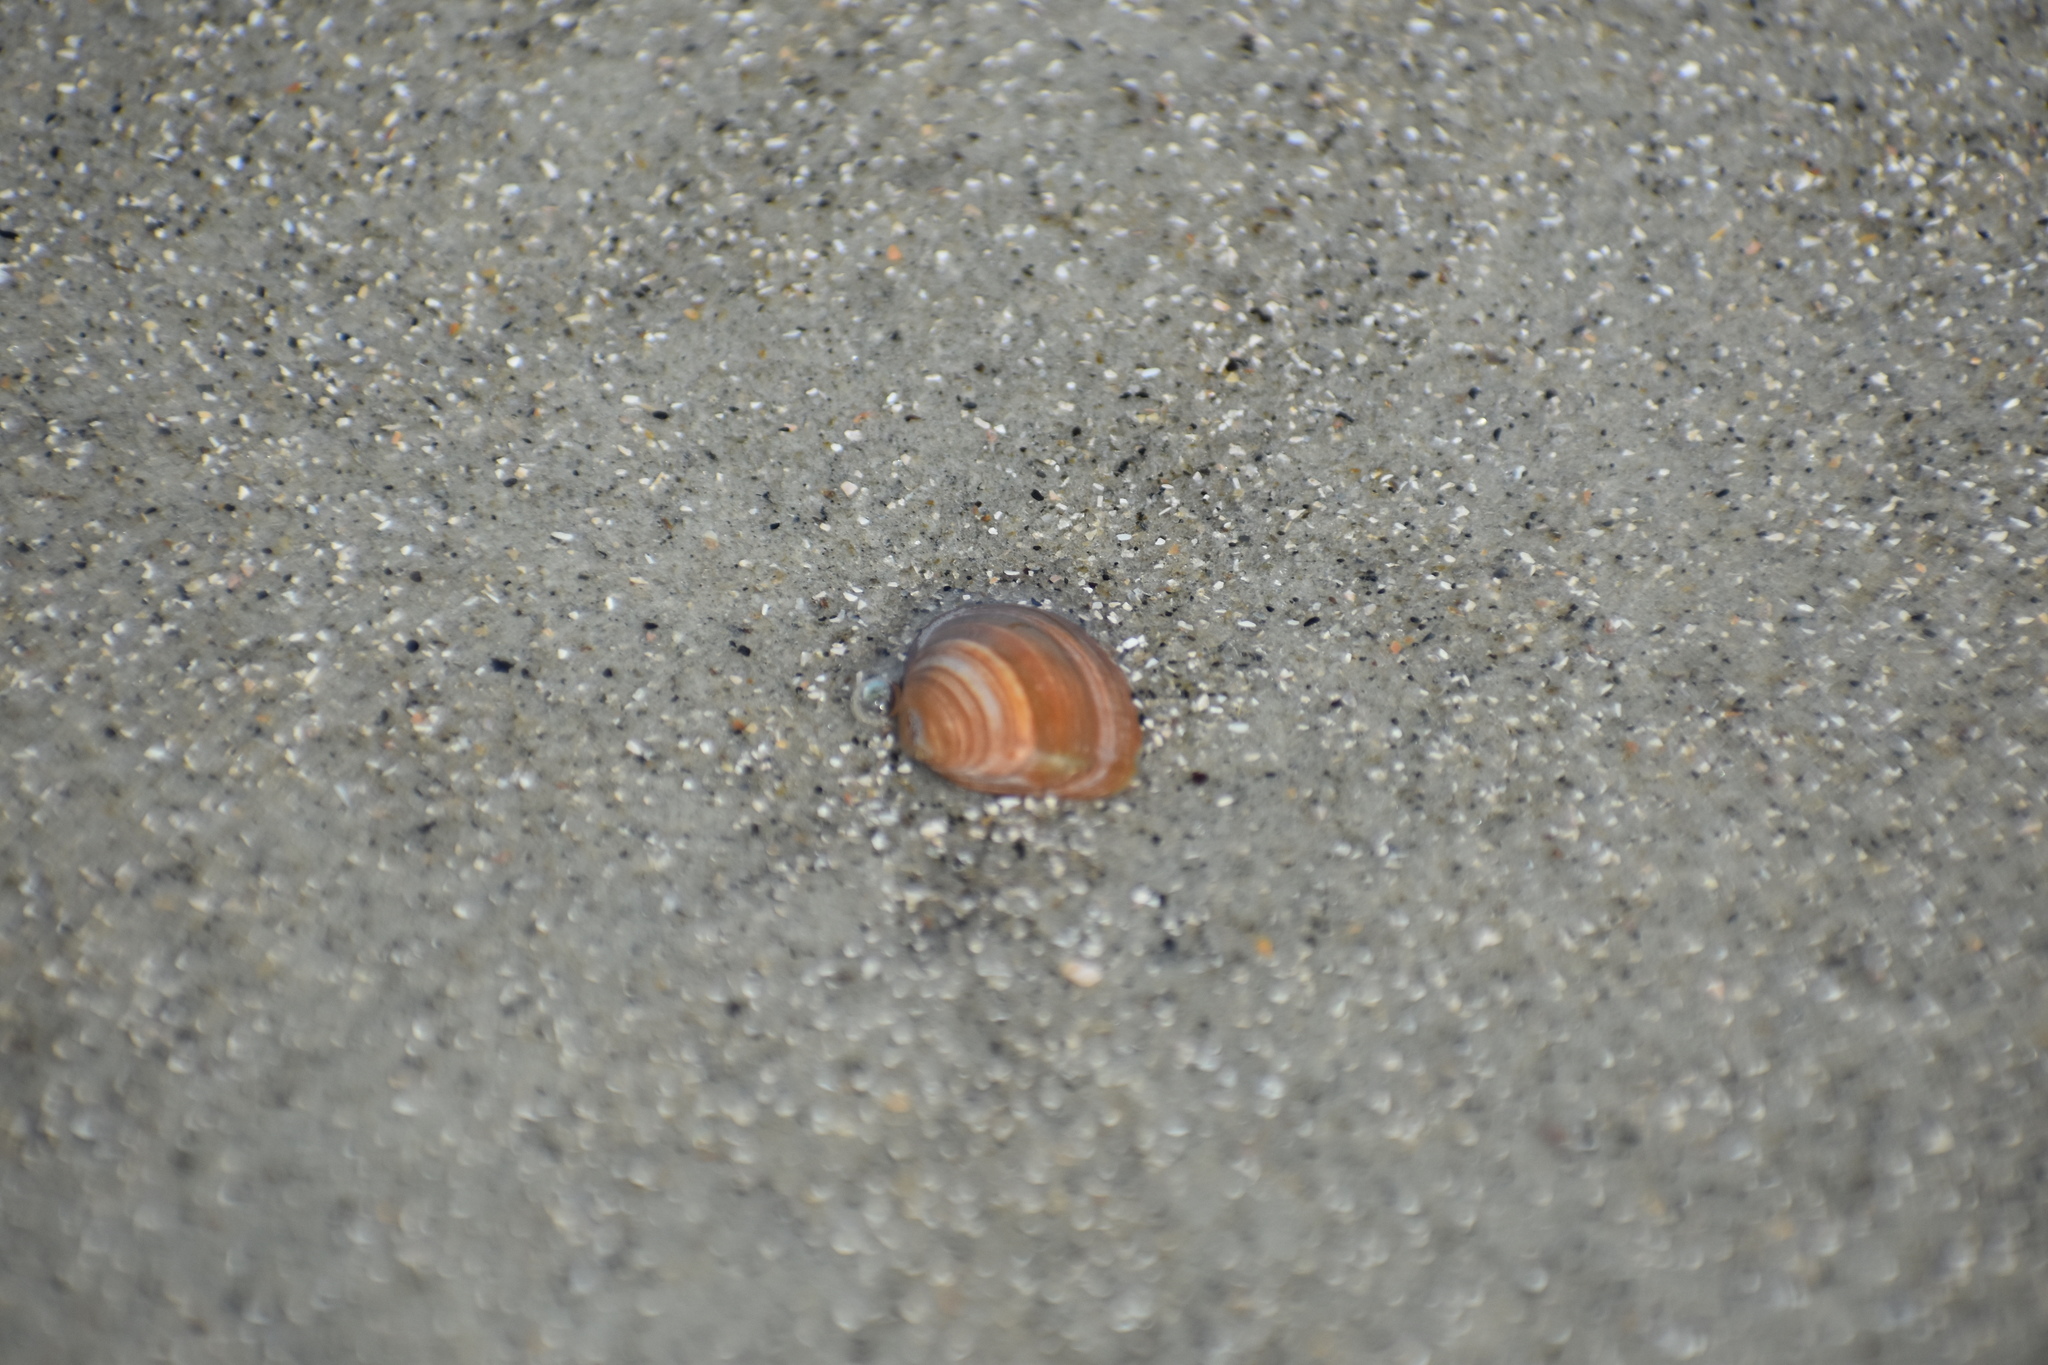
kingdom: Animalia
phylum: Mollusca
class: Bivalvia
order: Venerida
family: Mactridae
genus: Mulinia
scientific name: Mulinia lateralis
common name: Dwarf surfclam
